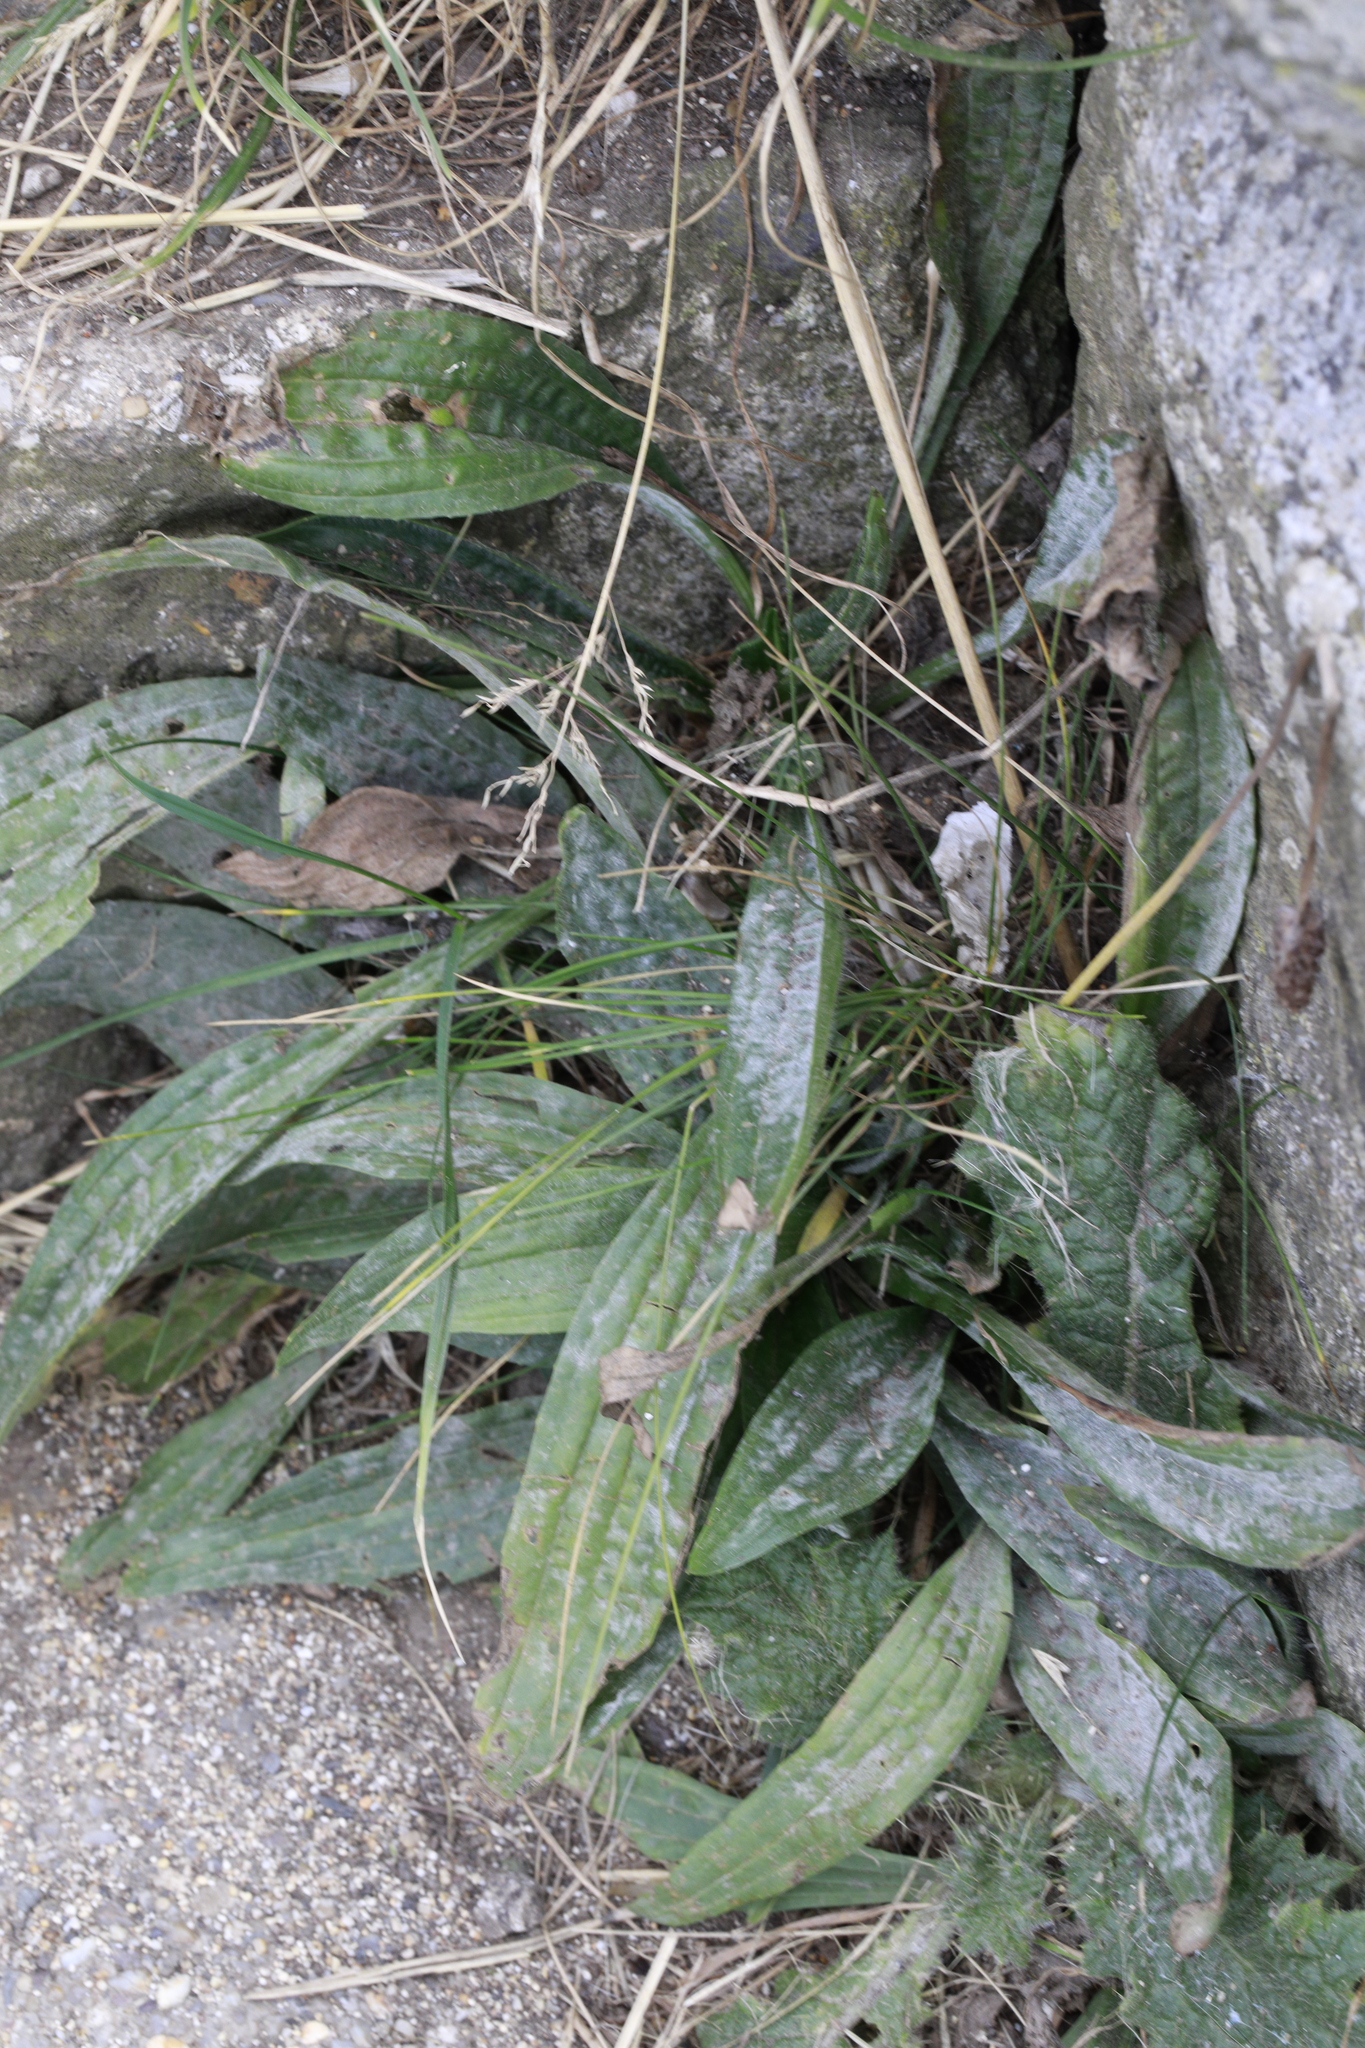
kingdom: Plantae
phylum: Tracheophyta
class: Magnoliopsida
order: Lamiales
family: Plantaginaceae
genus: Plantago
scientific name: Plantago lanceolata
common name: Ribwort plantain
